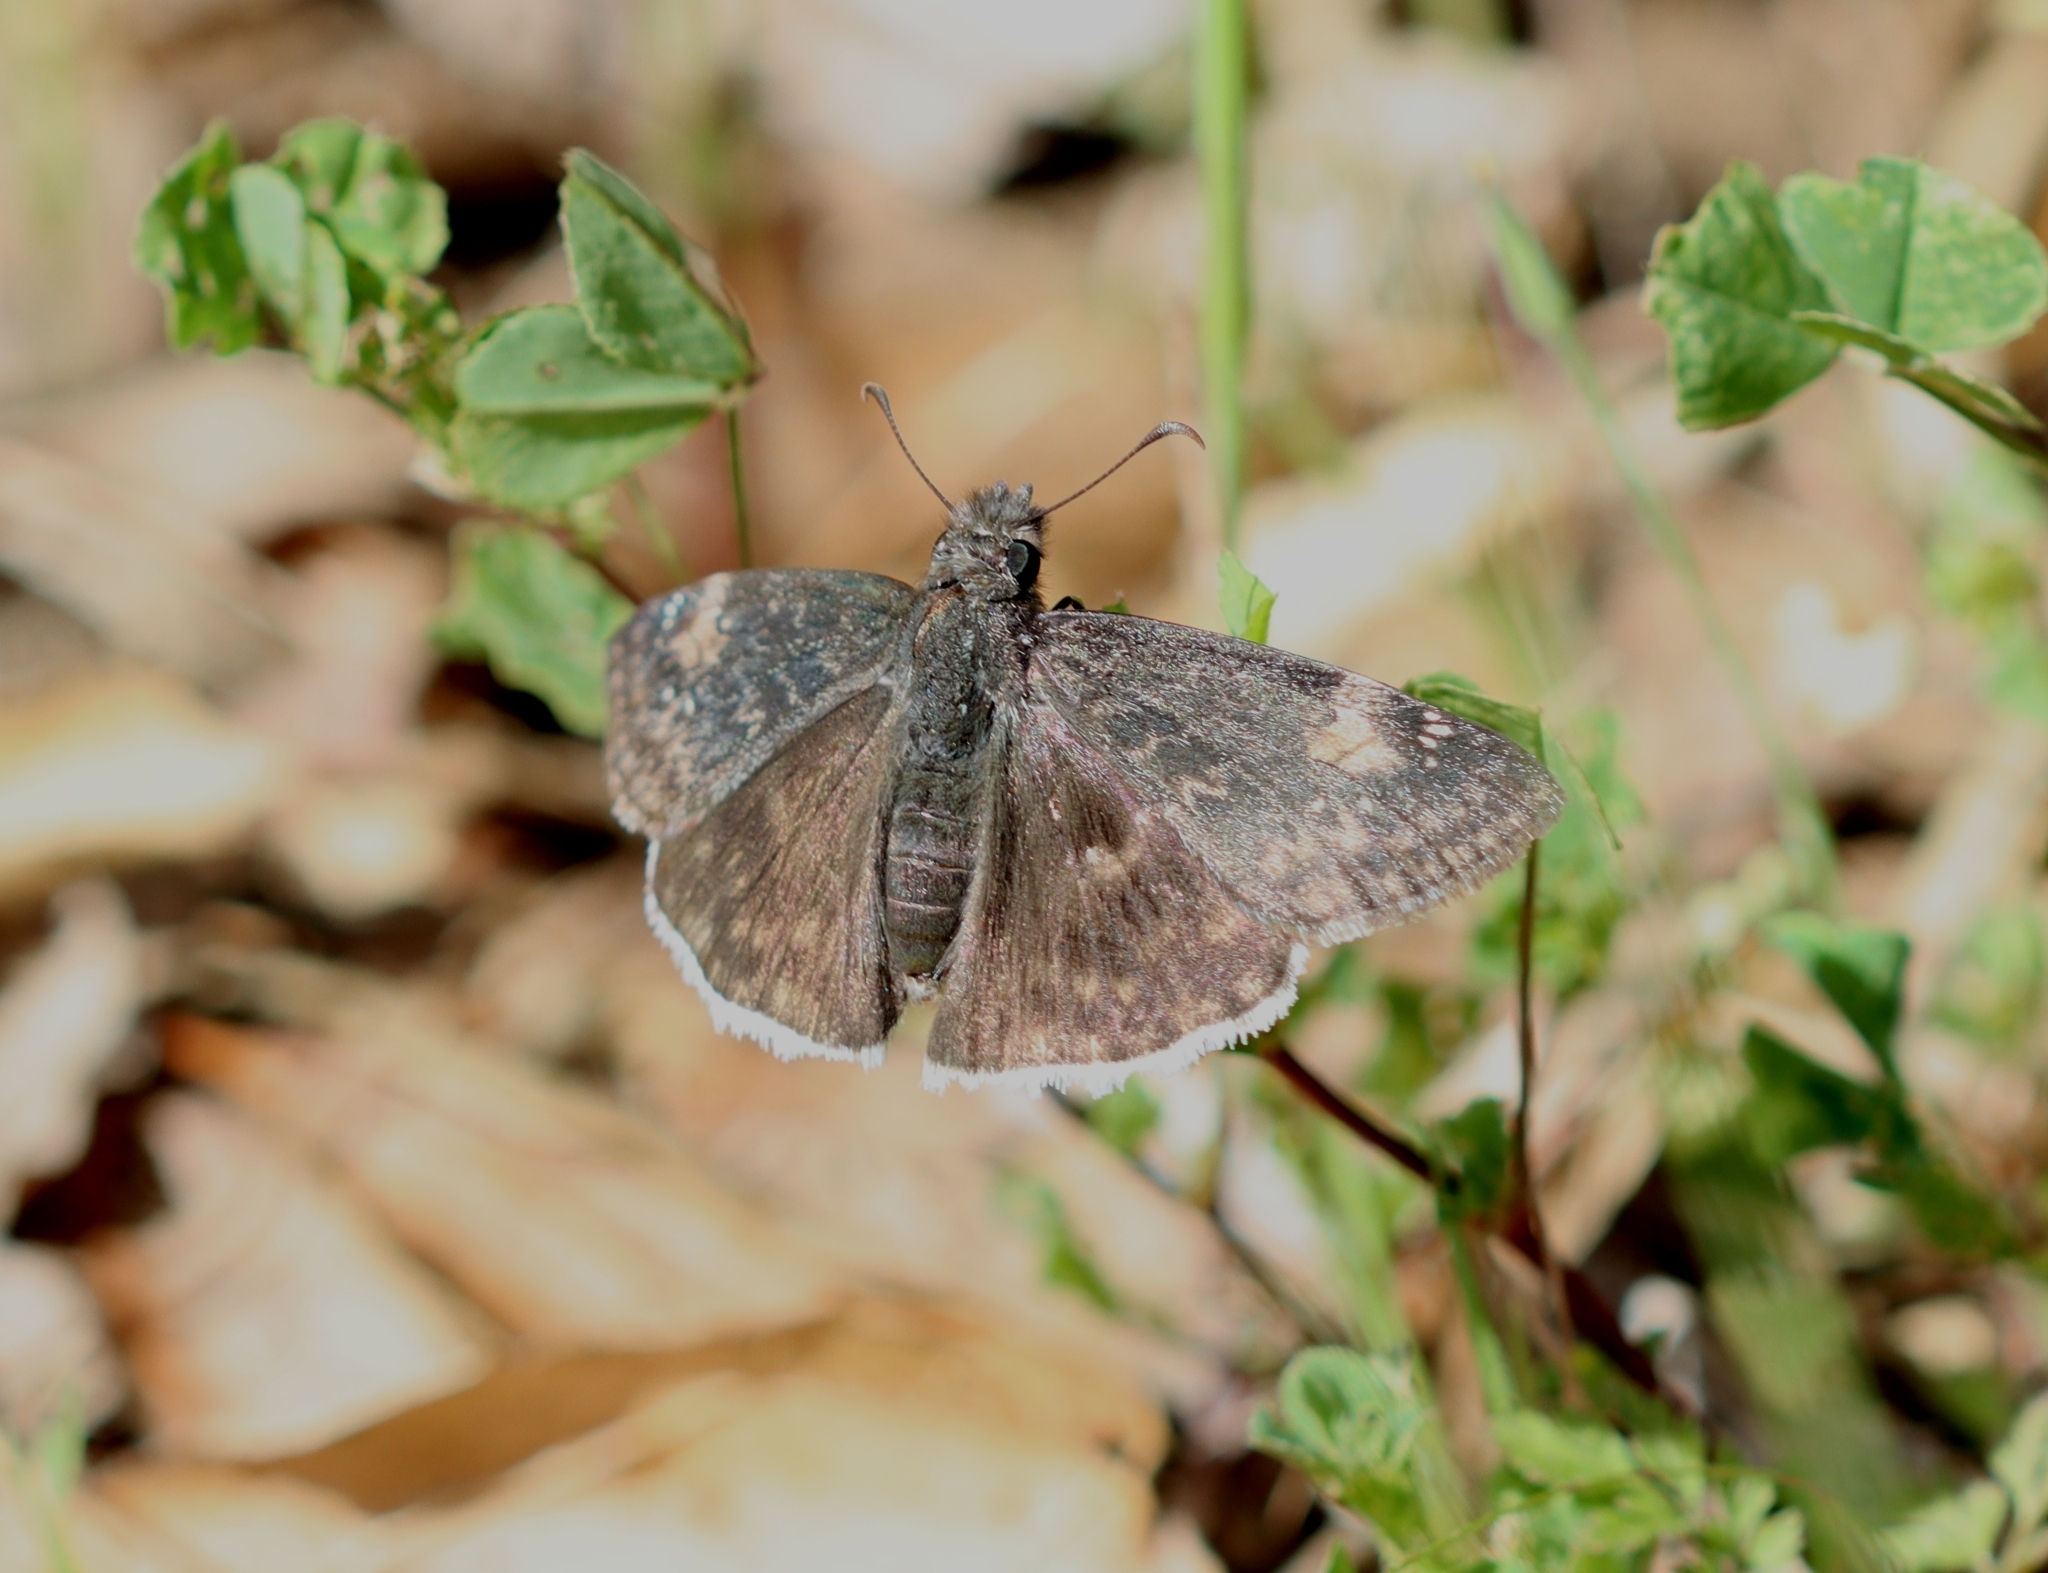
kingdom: Animalia
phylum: Arthropoda
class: Insecta
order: Lepidoptera
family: Hesperiidae
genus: Erynnis
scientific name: Erynnis funeralis
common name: Funereal duskywing
